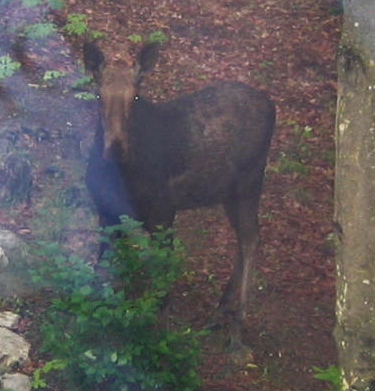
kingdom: Animalia
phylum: Chordata
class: Mammalia
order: Artiodactyla
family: Cervidae
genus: Alces
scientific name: Alces alces
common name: Moose
